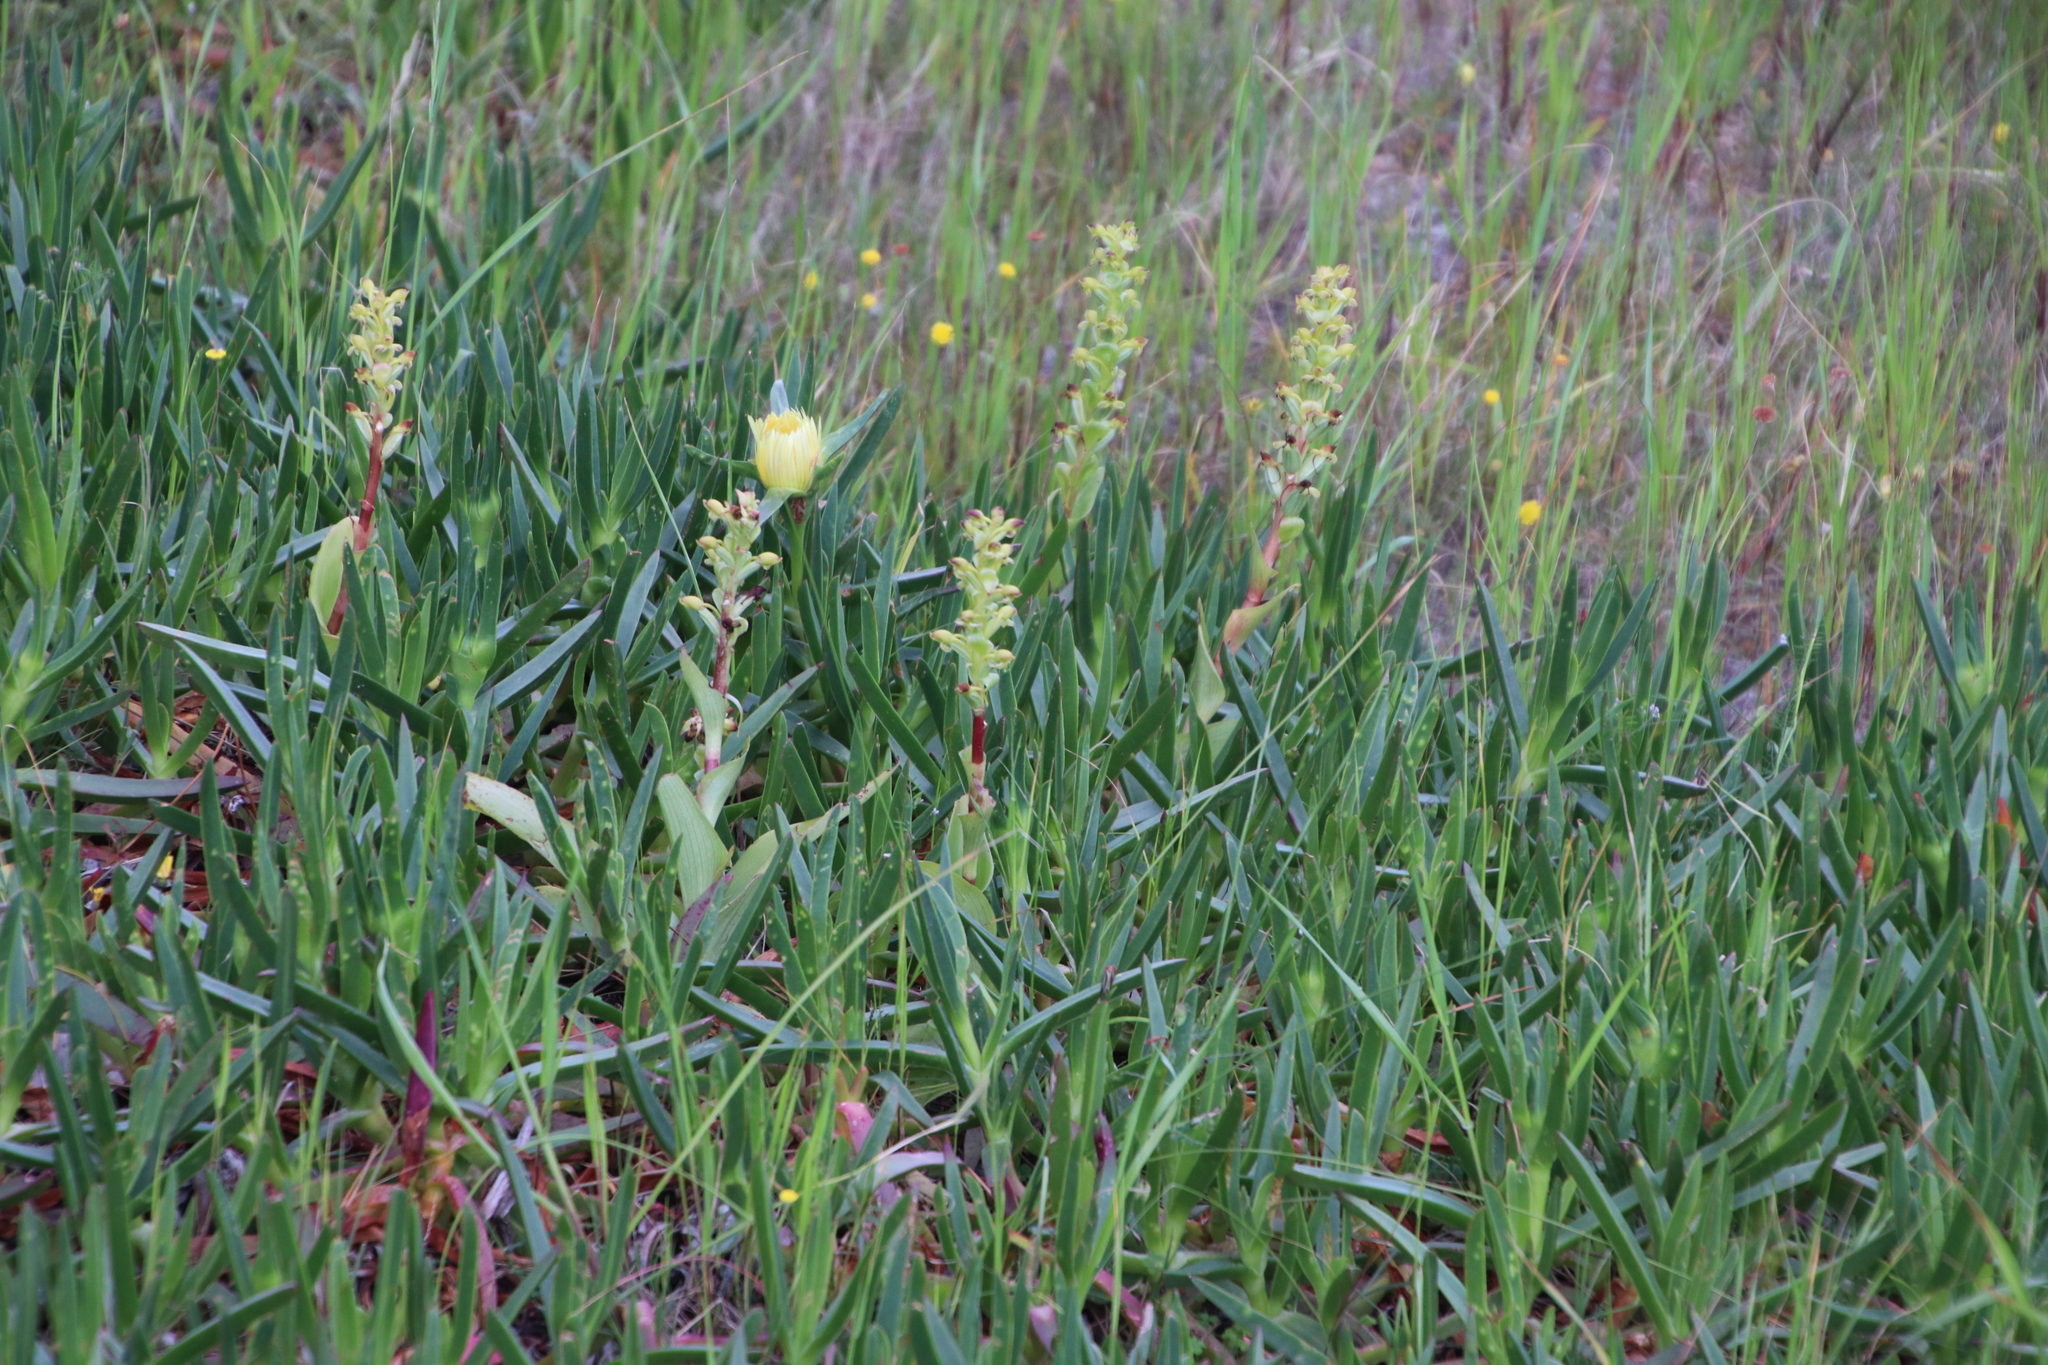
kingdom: Plantae
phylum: Tracheophyta
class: Liliopsida
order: Asparagales
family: Orchidaceae
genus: Satyrium
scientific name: Satyrium odorum
